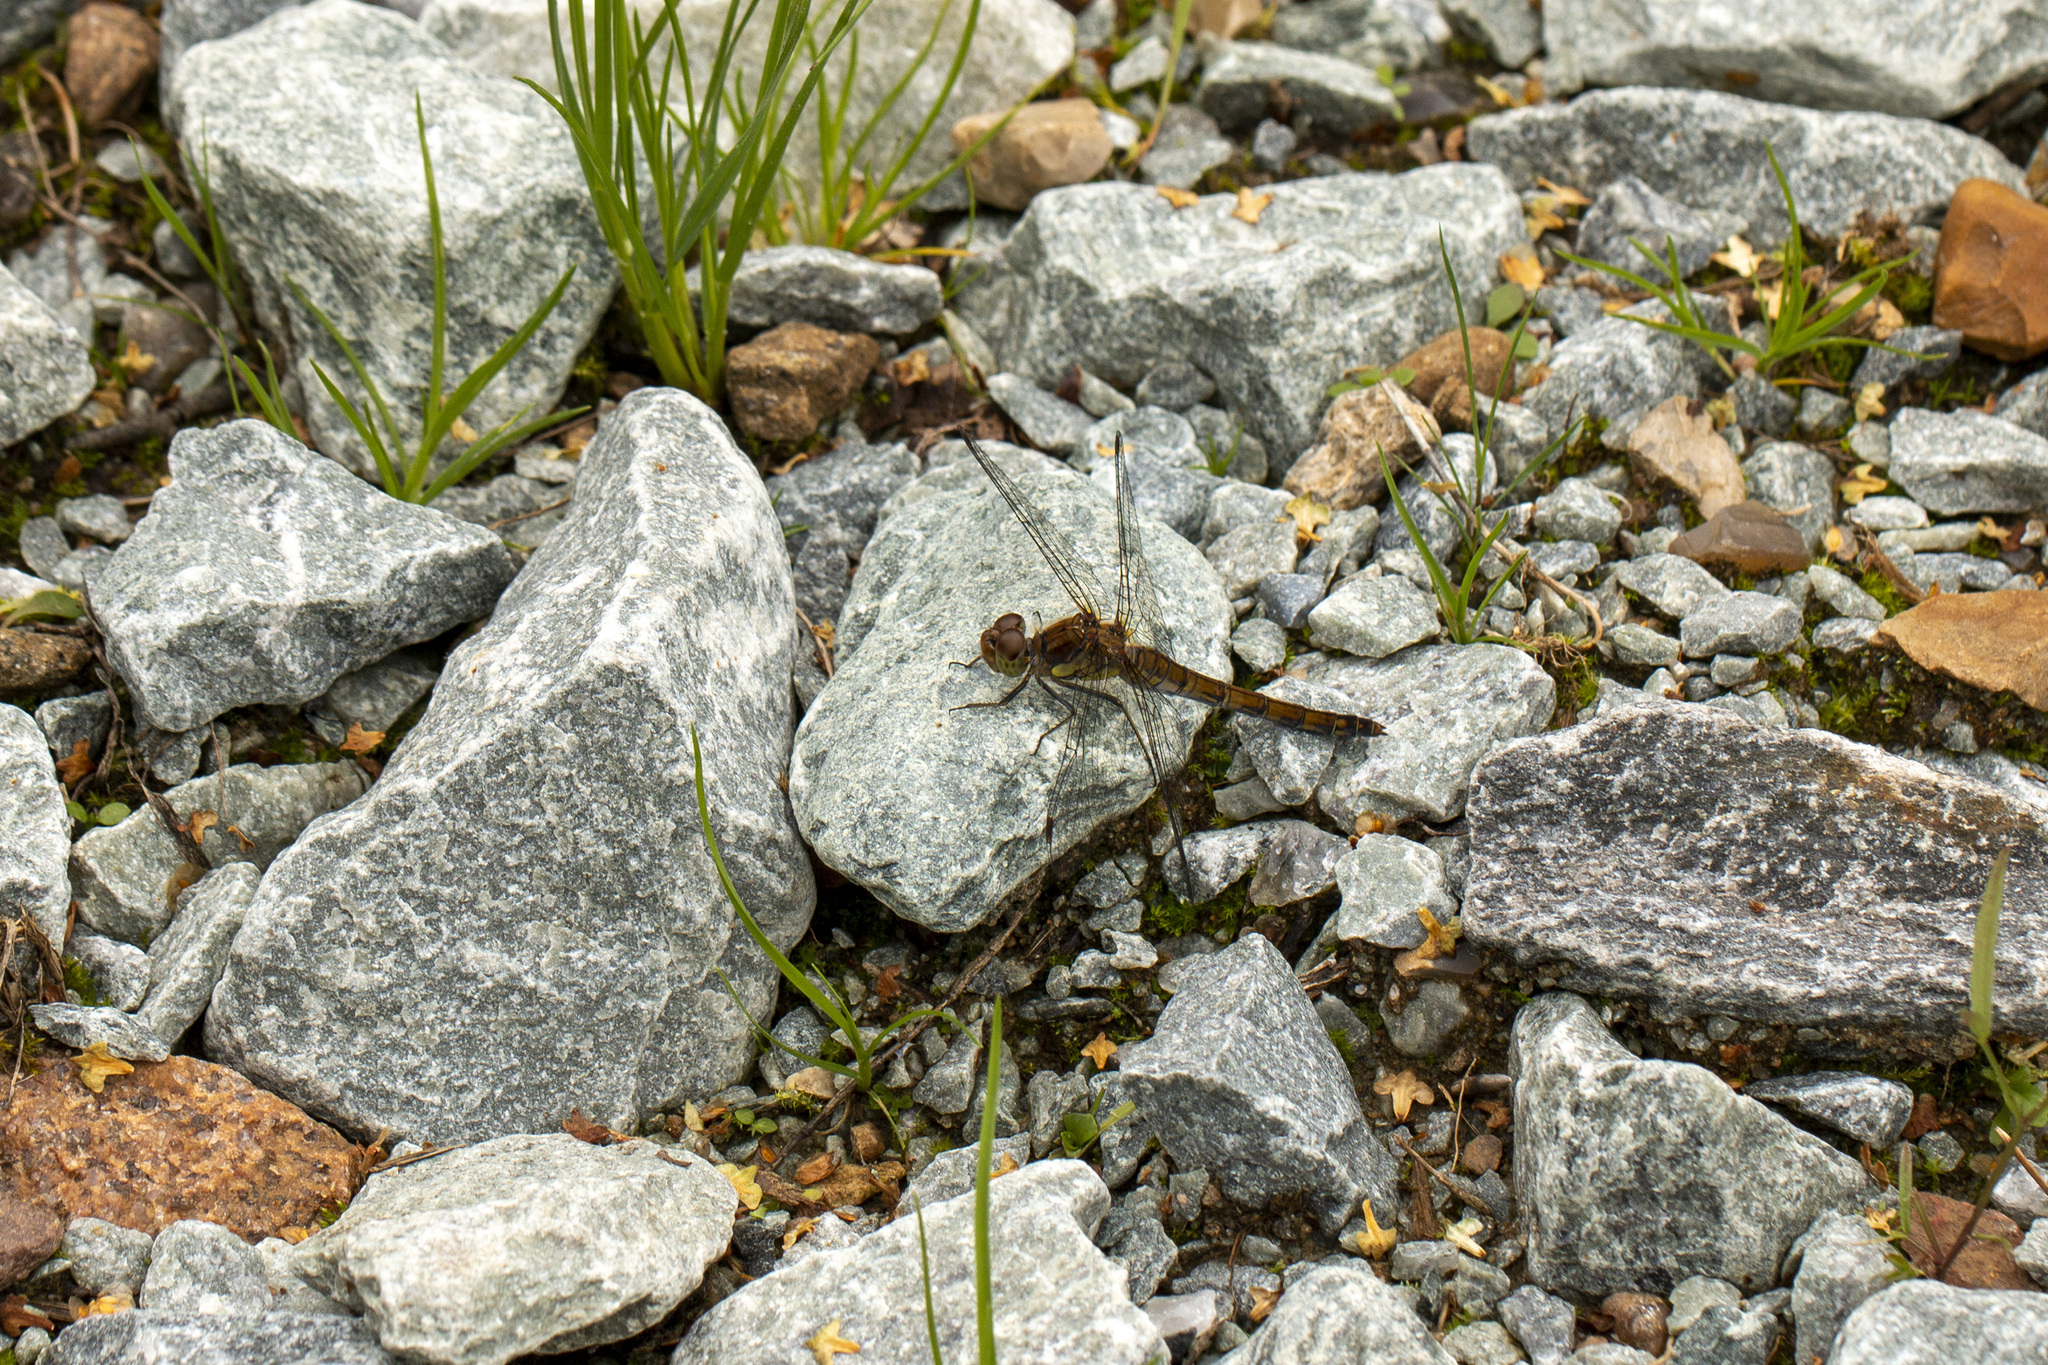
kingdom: Animalia
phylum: Arthropoda
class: Insecta
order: Odonata
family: Libellulidae
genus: Sympetrum
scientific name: Sympetrum striolatum
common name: Common darter
